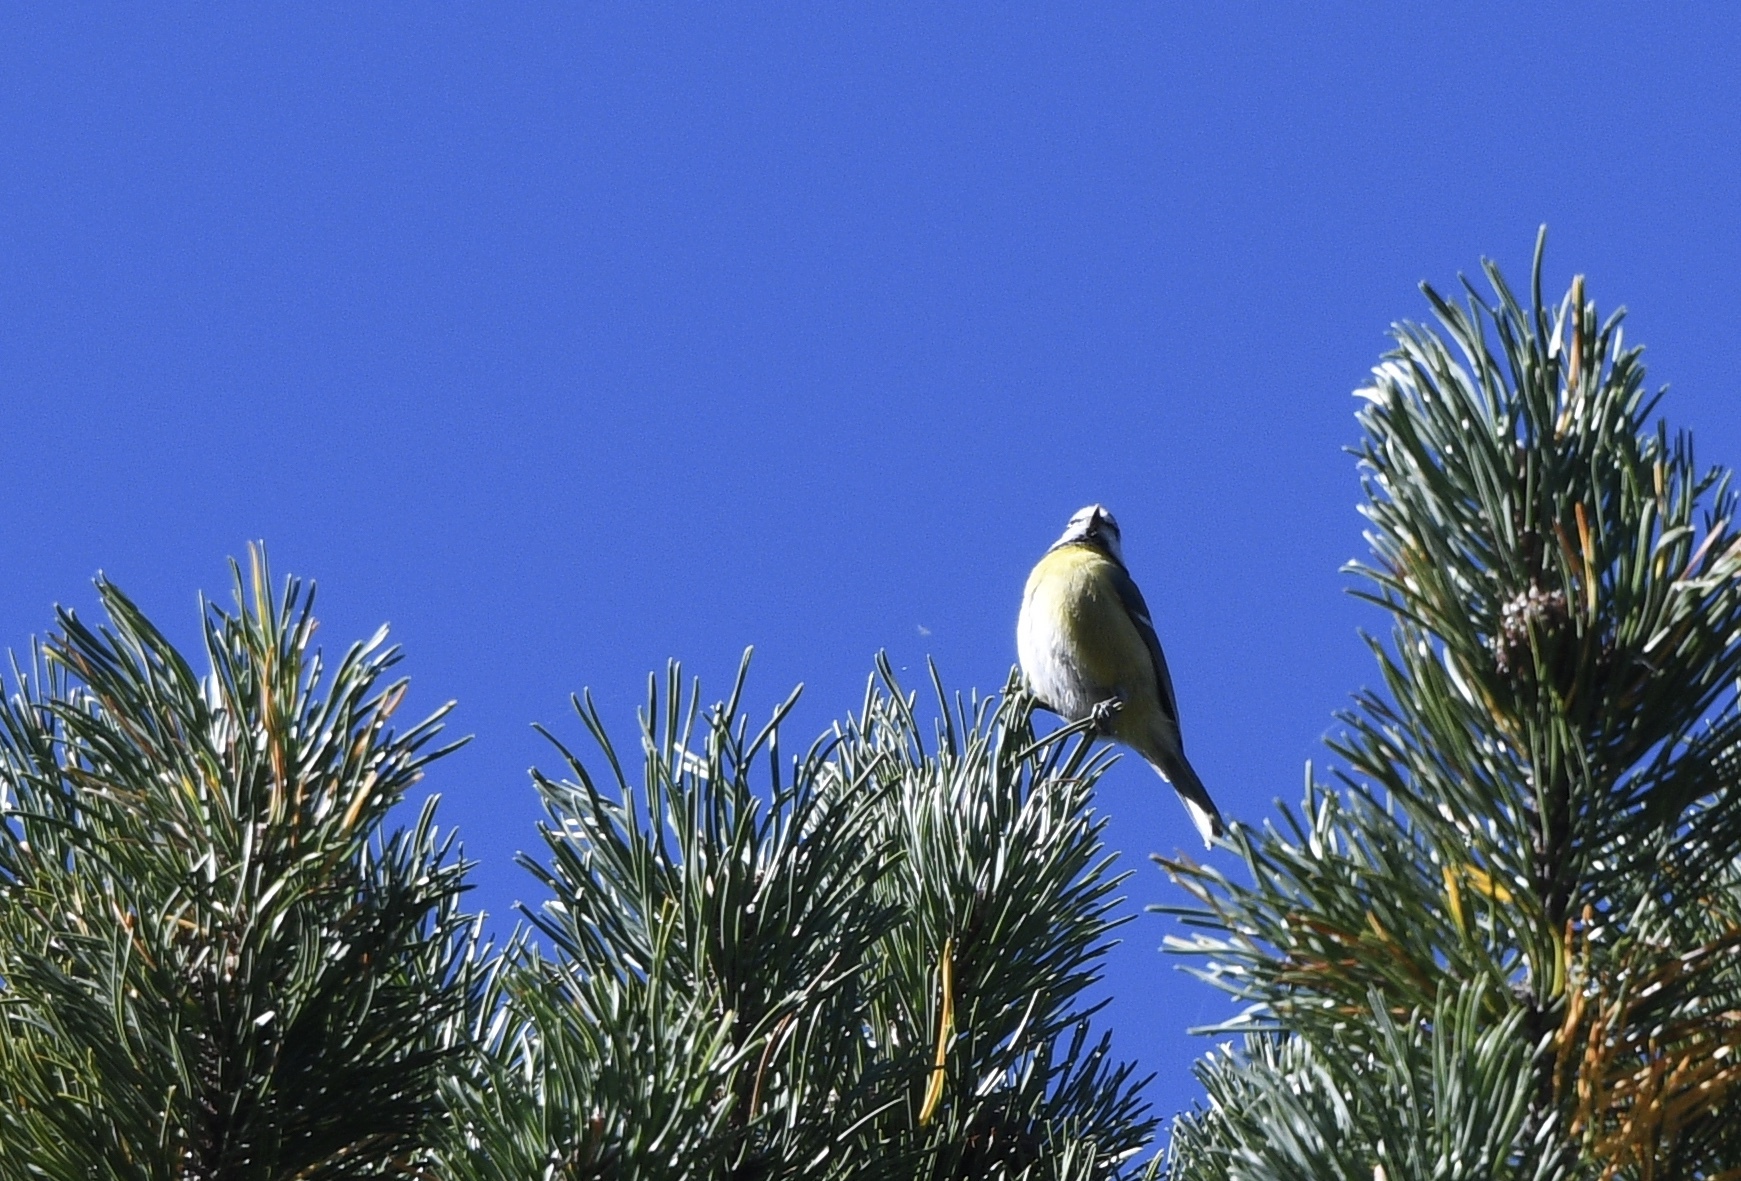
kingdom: Animalia
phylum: Chordata
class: Aves
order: Passeriformes
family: Paridae
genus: Cyanistes
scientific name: Cyanistes caeruleus
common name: Eurasian blue tit
